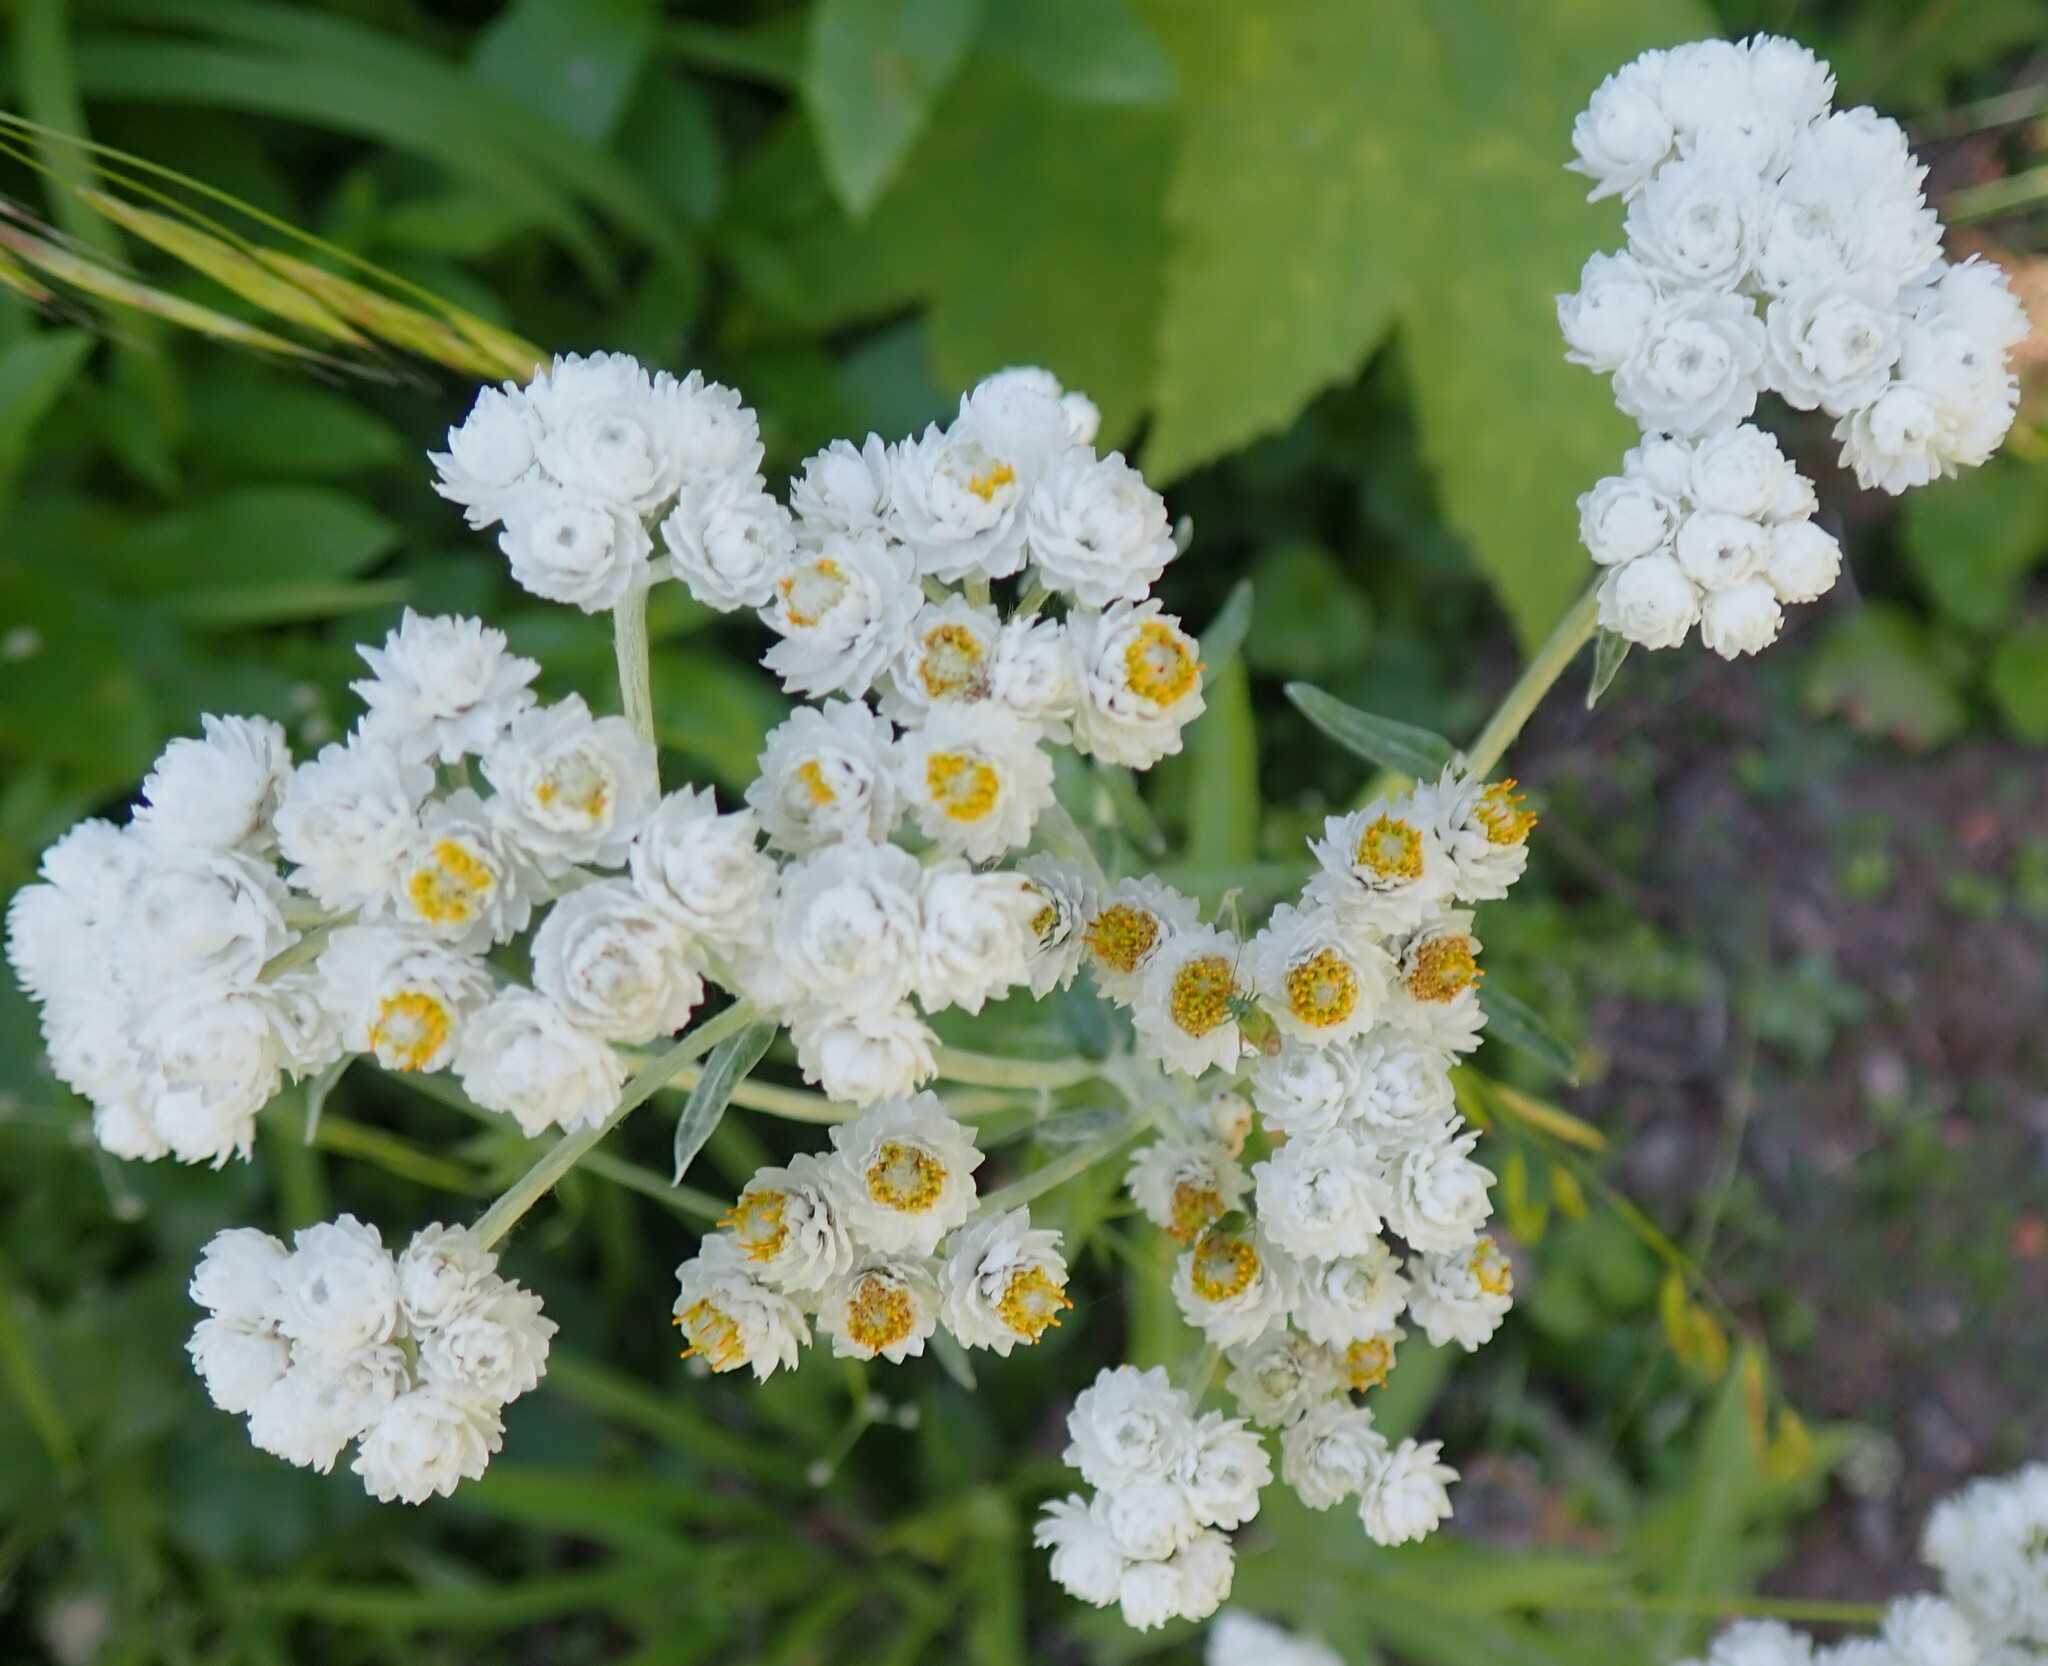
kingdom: Plantae
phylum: Tracheophyta
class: Magnoliopsida
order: Asterales
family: Asteraceae
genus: Anaphalis
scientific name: Anaphalis margaritacea
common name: Pearly everlasting
